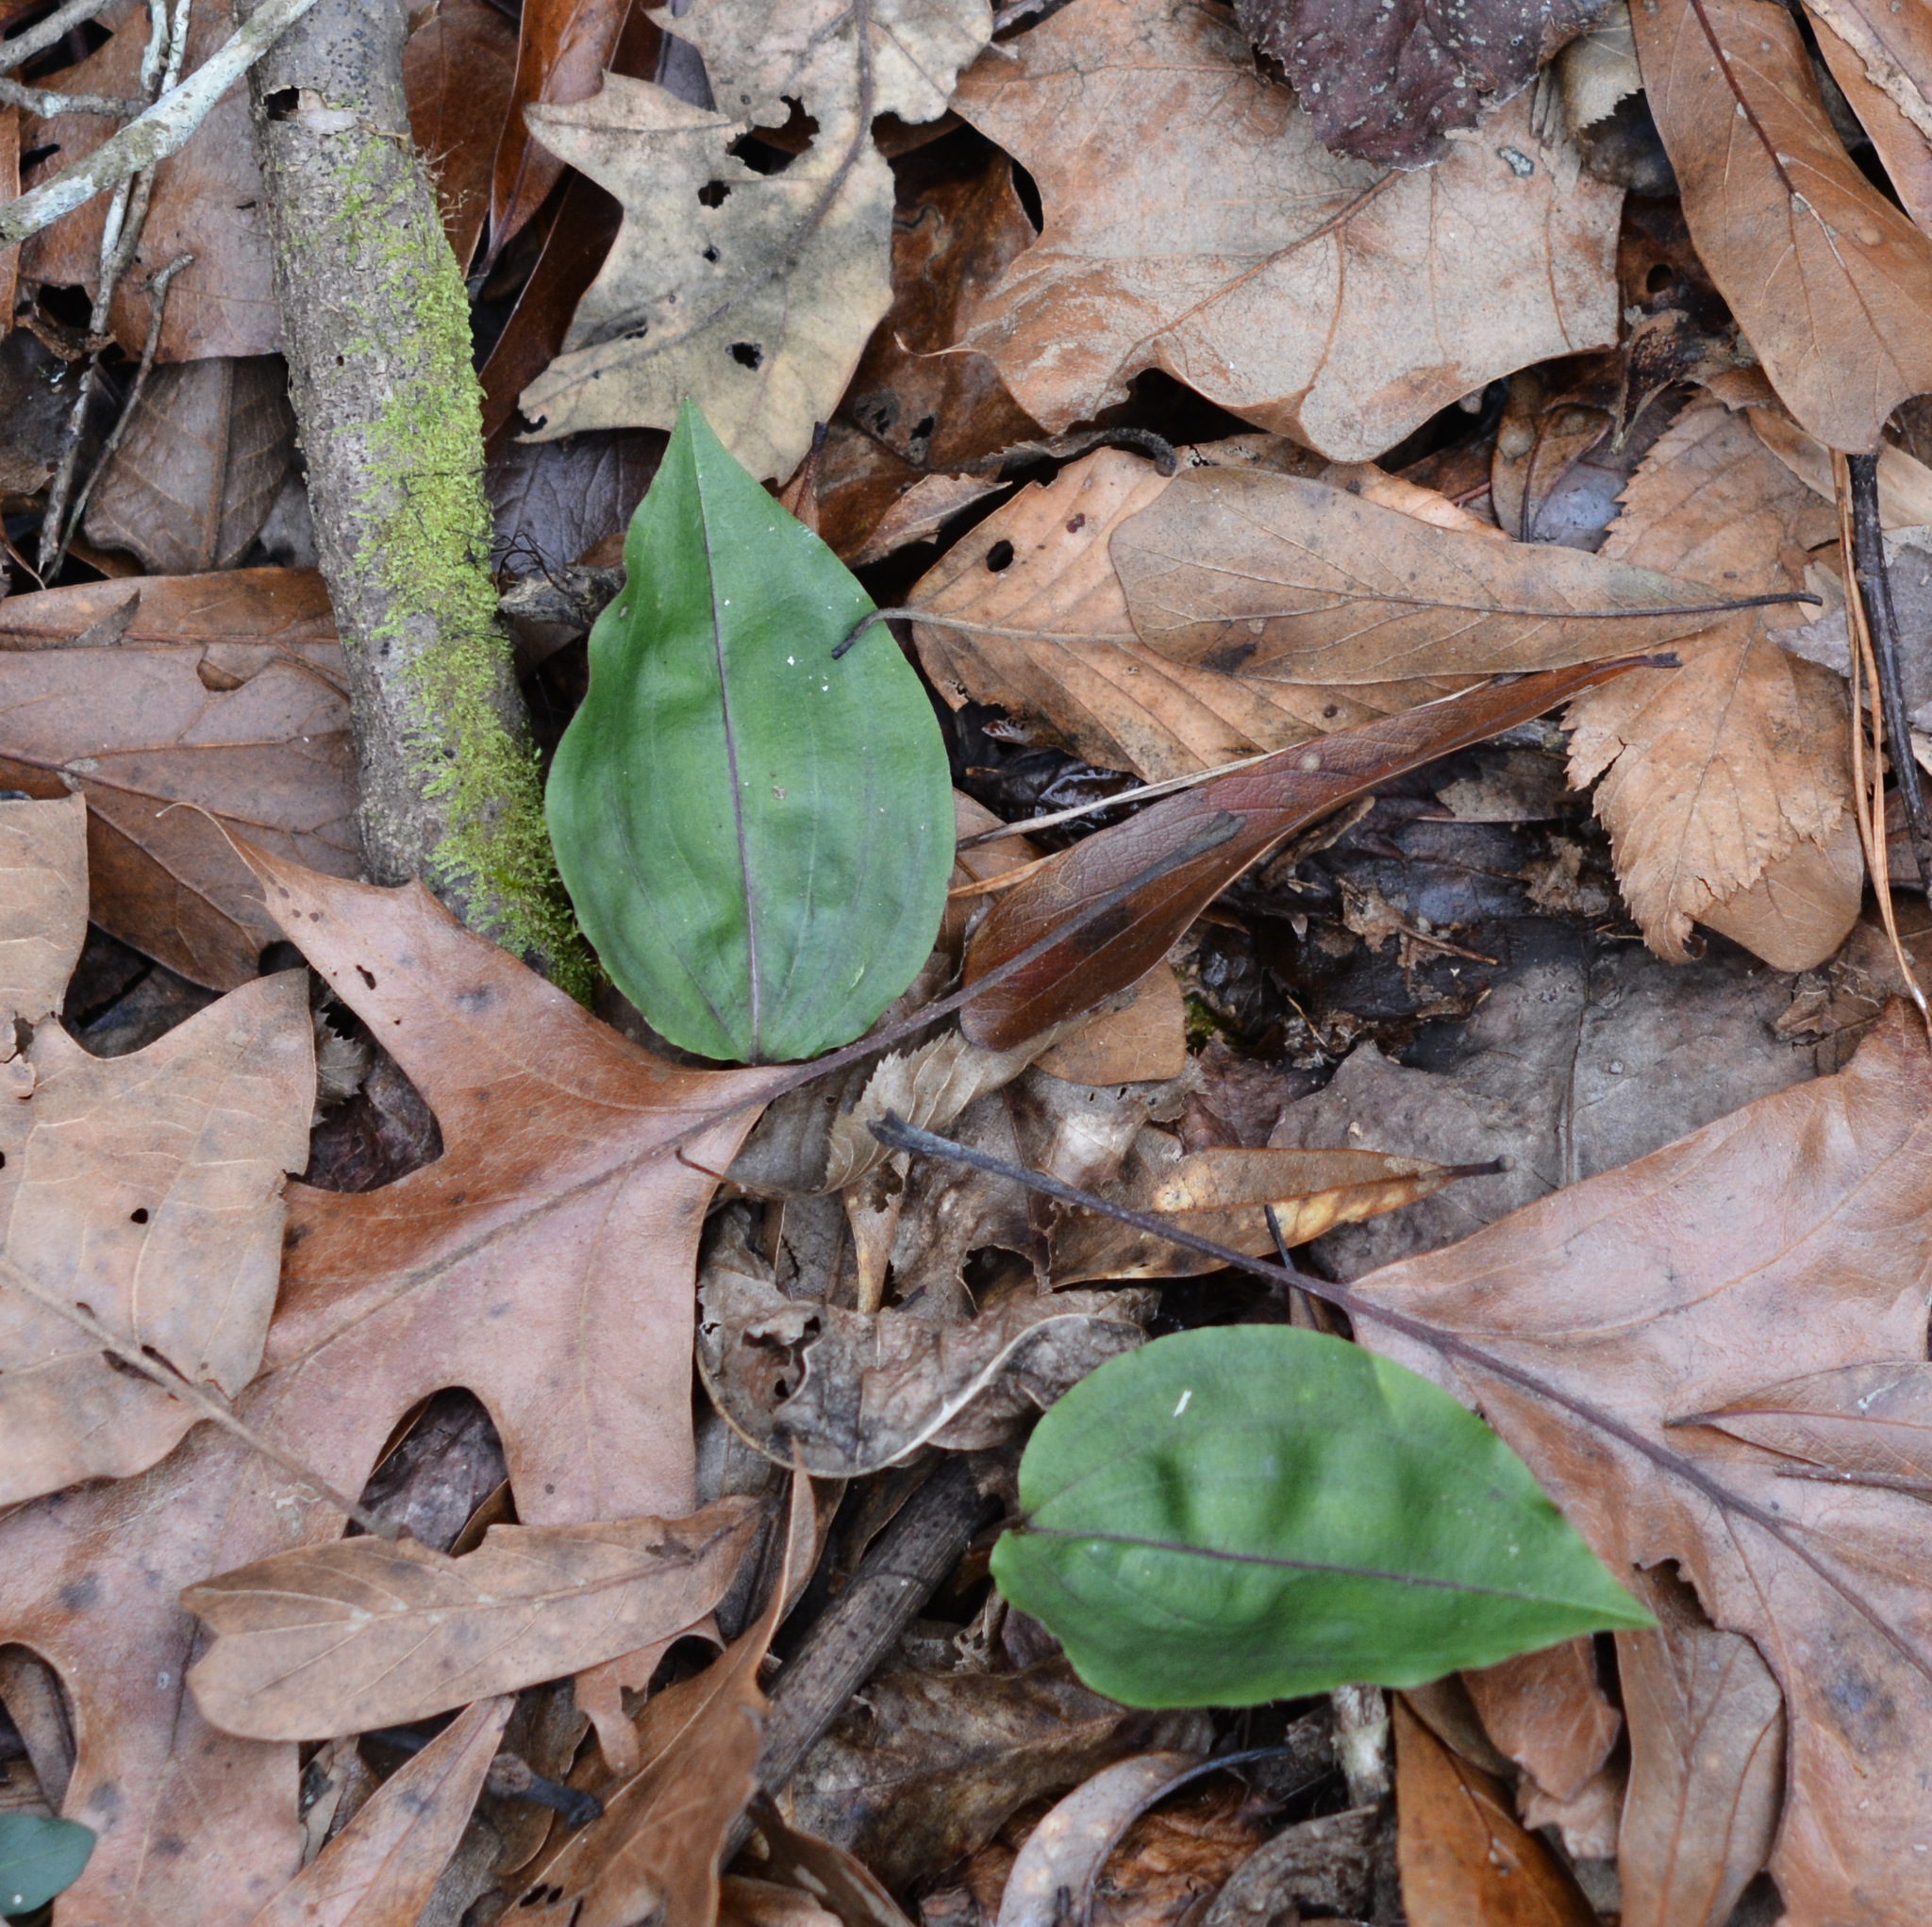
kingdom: Plantae
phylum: Tracheophyta
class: Liliopsida
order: Asparagales
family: Orchidaceae
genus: Tipularia
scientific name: Tipularia discolor
